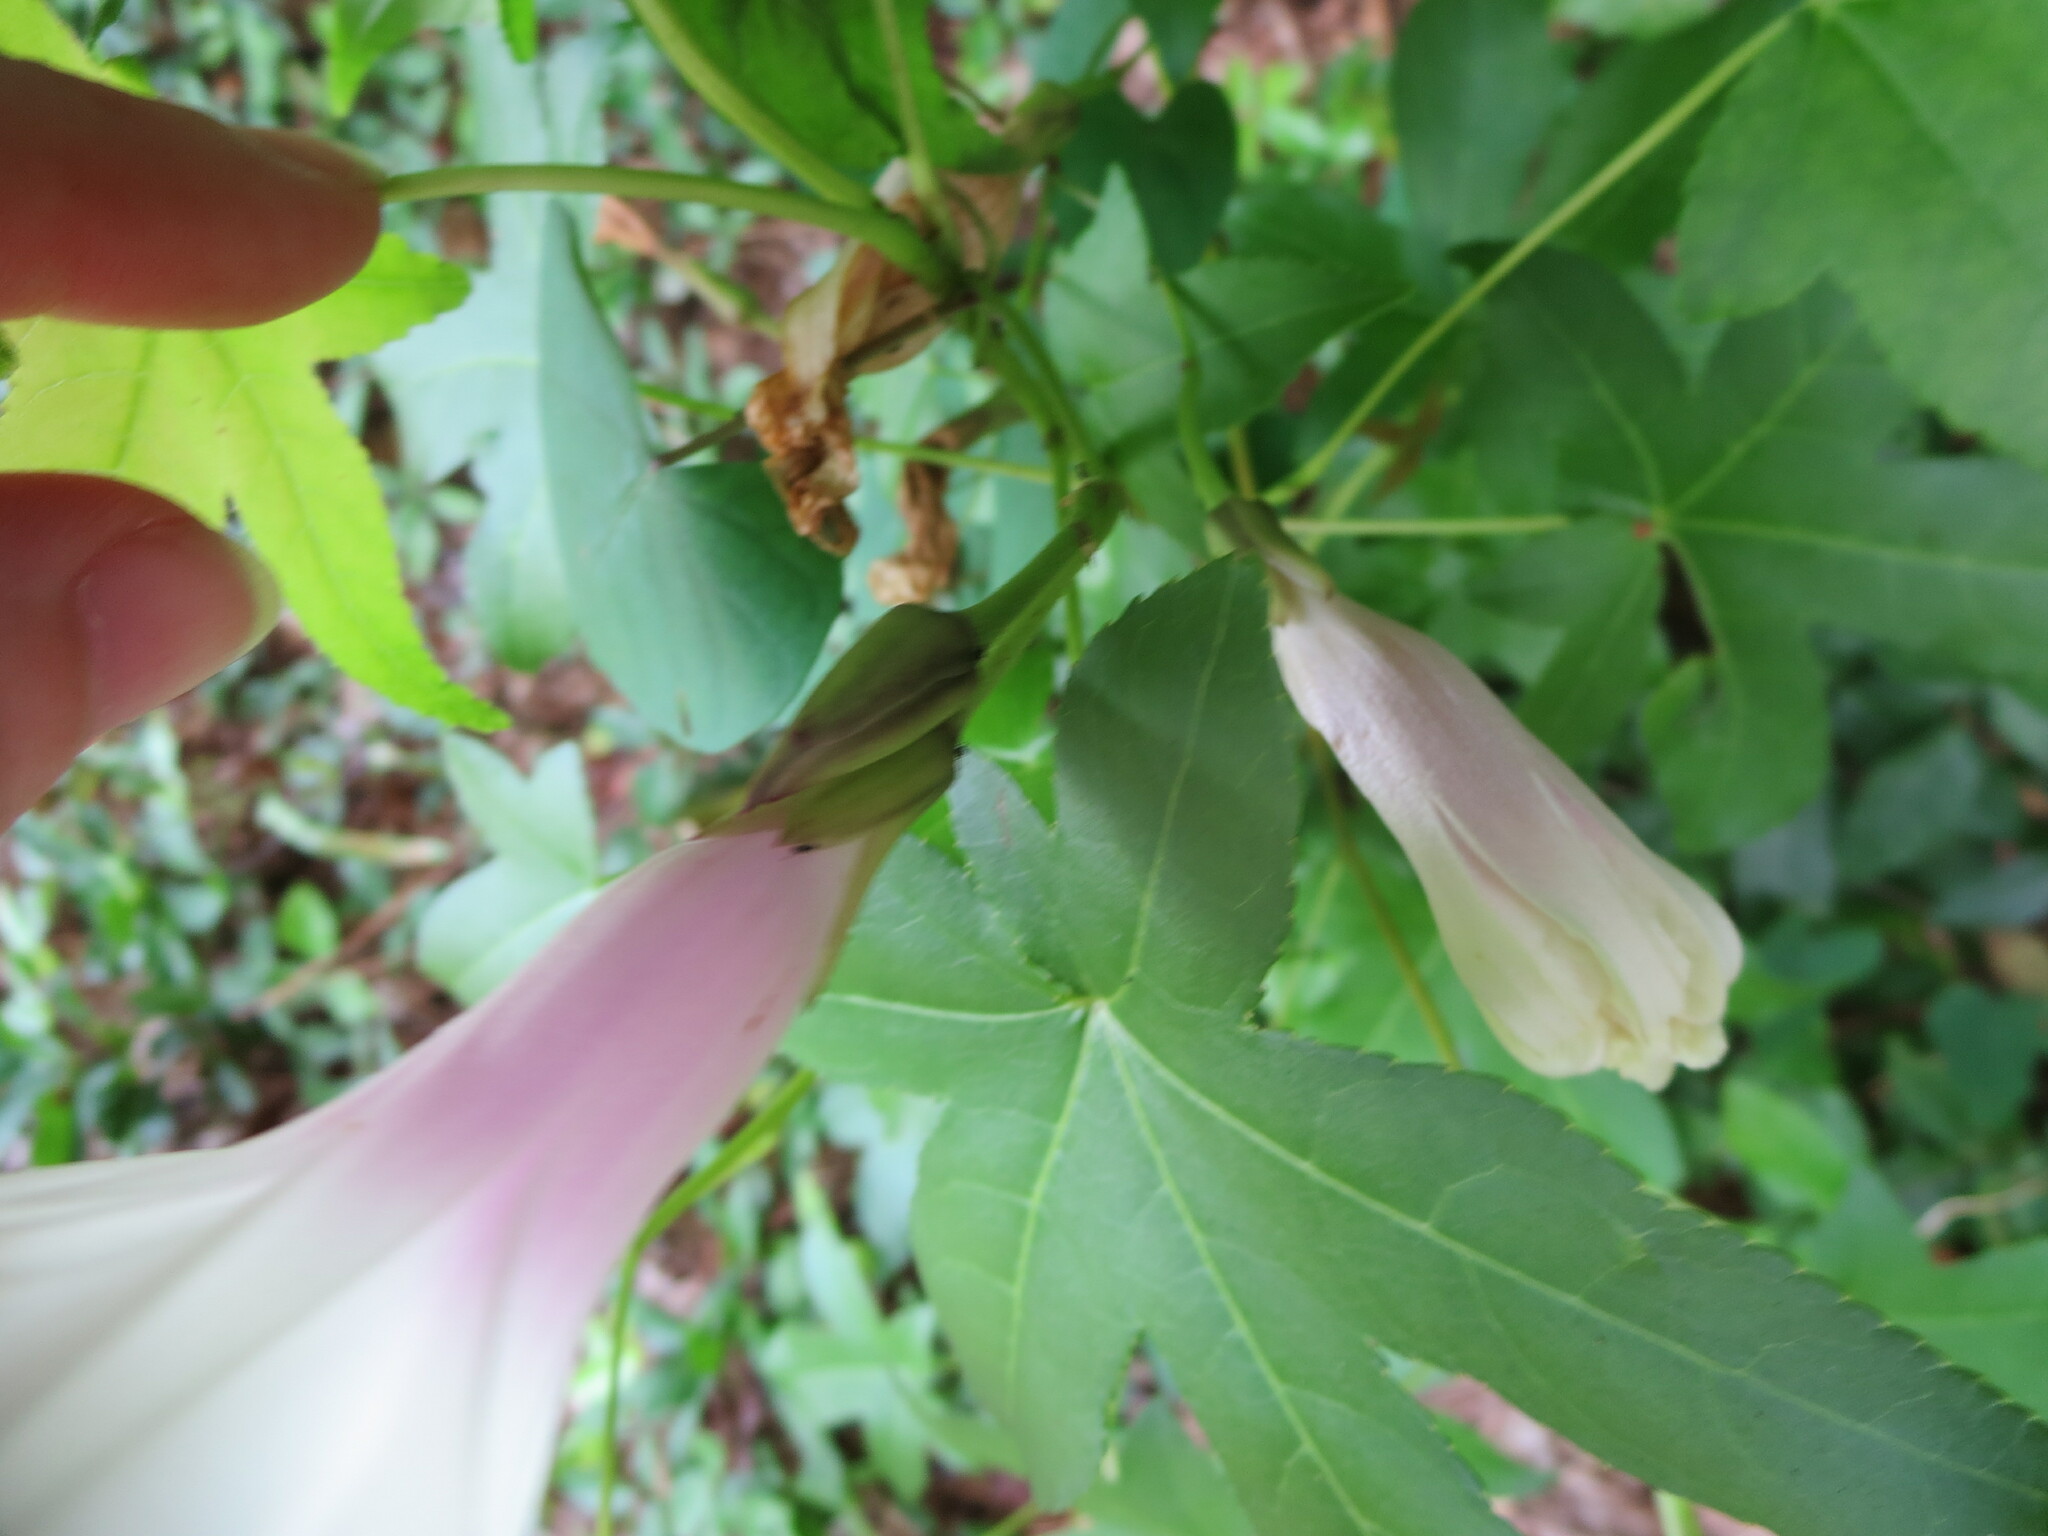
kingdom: Plantae
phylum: Tracheophyta
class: Magnoliopsida
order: Solanales
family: Convolvulaceae
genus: Ipomoea
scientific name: Ipomoea pandurata
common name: Man-of-the-earth
